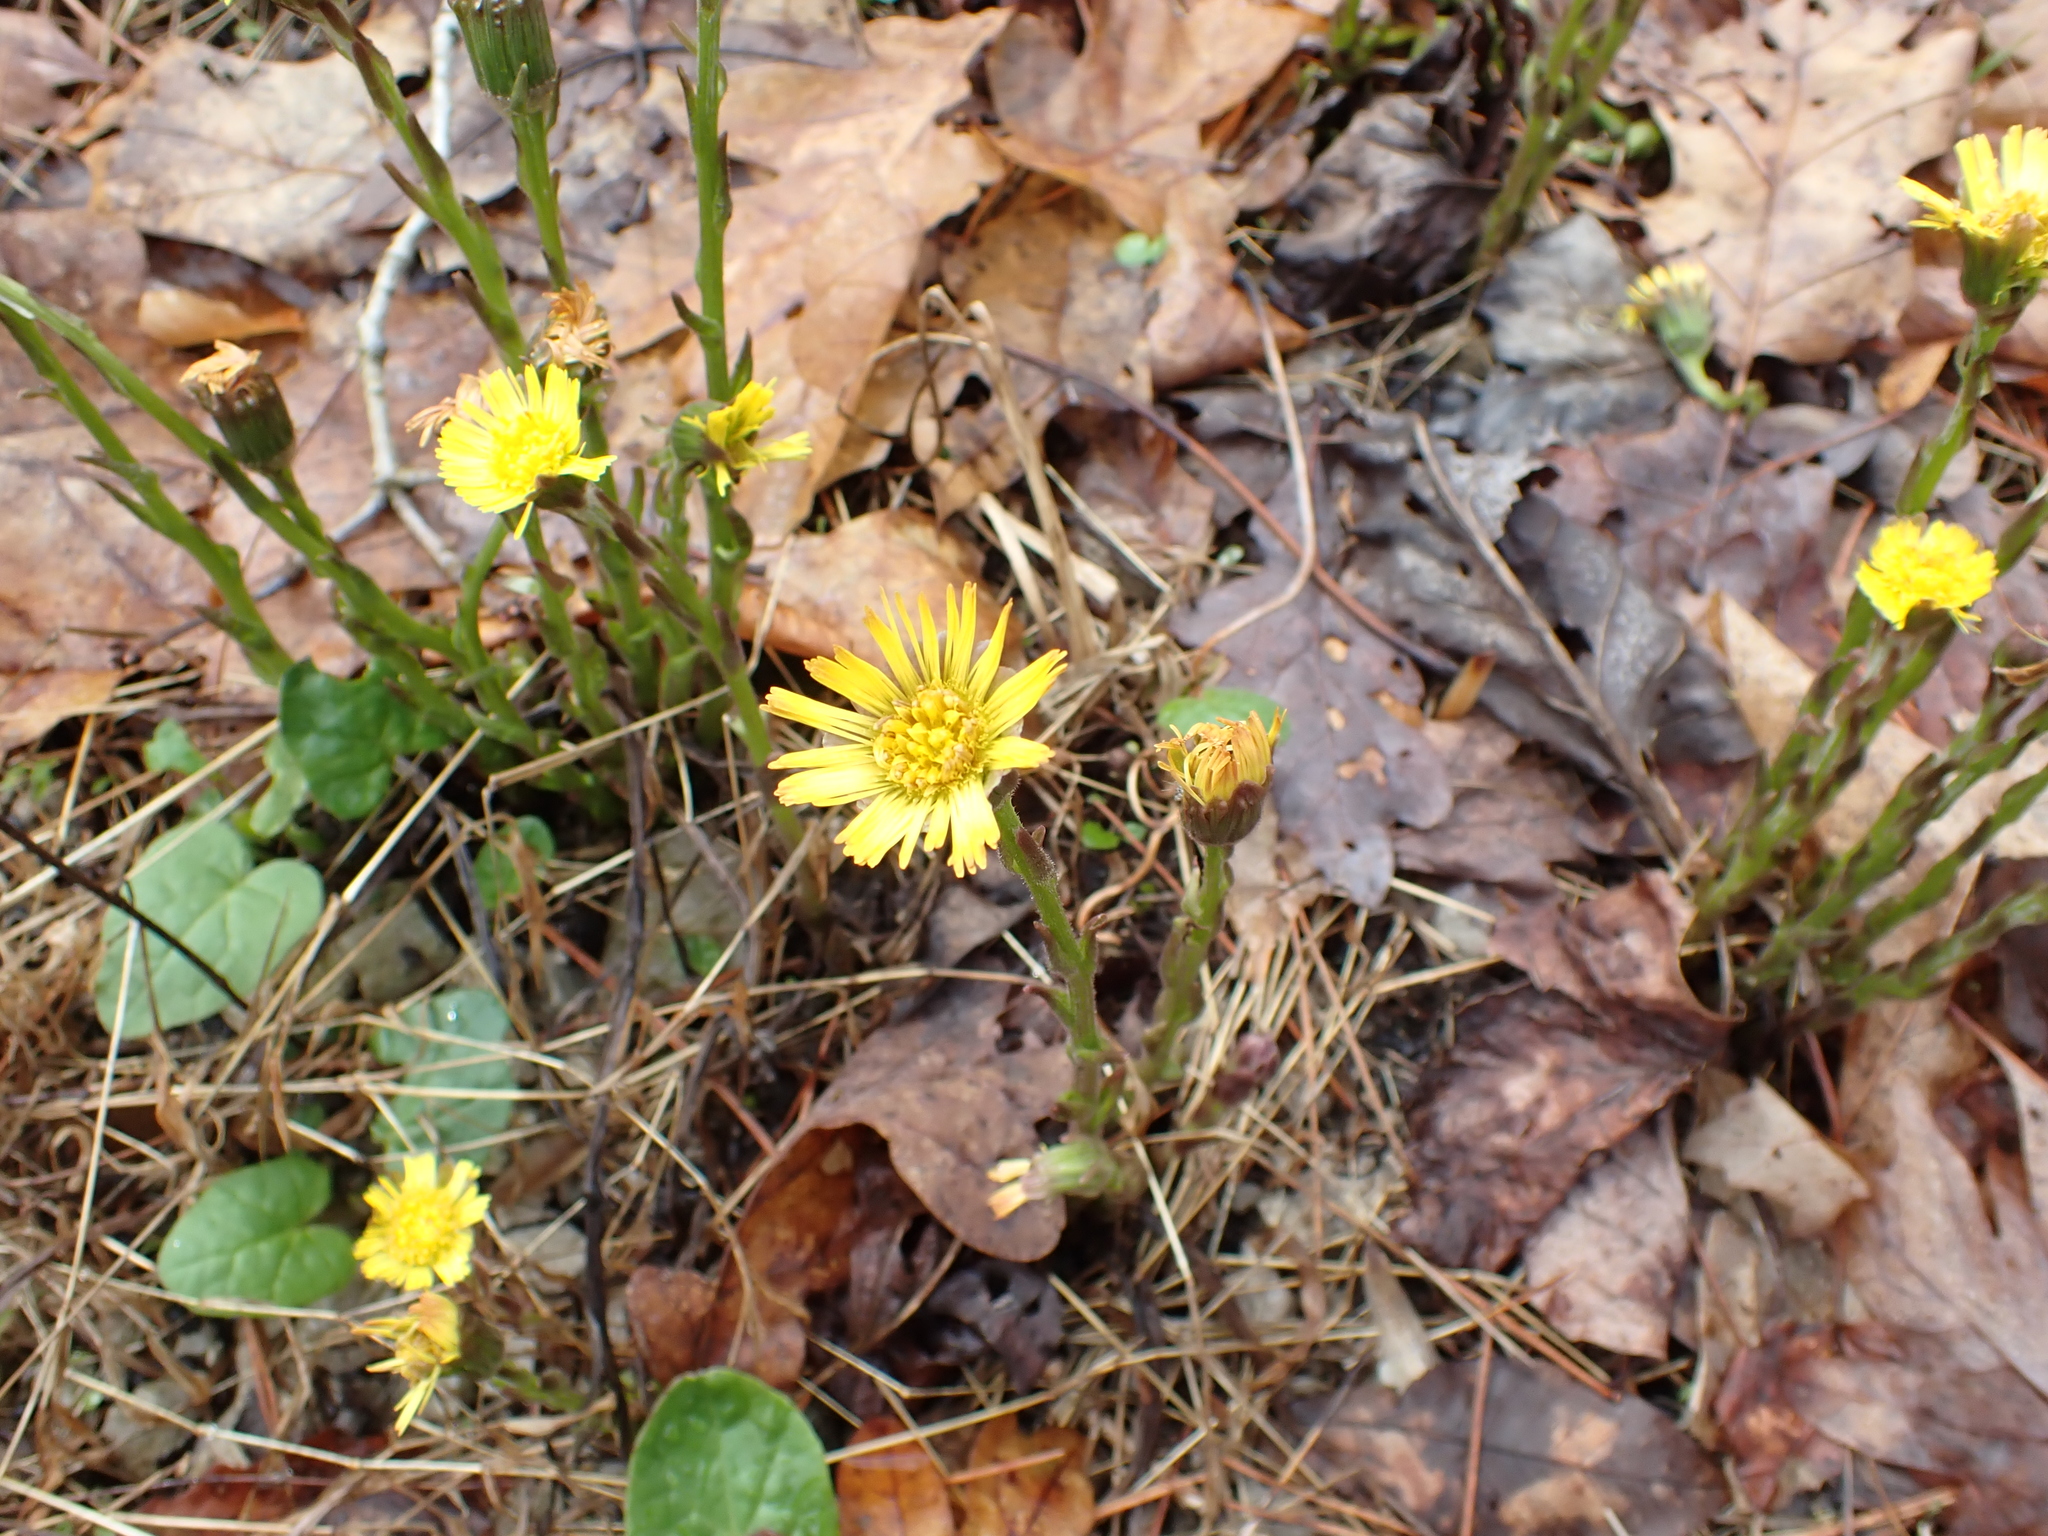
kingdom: Plantae
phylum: Tracheophyta
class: Magnoliopsida
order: Asterales
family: Asteraceae
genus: Tussilago
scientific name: Tussilago farfara
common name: Coltsfoot
